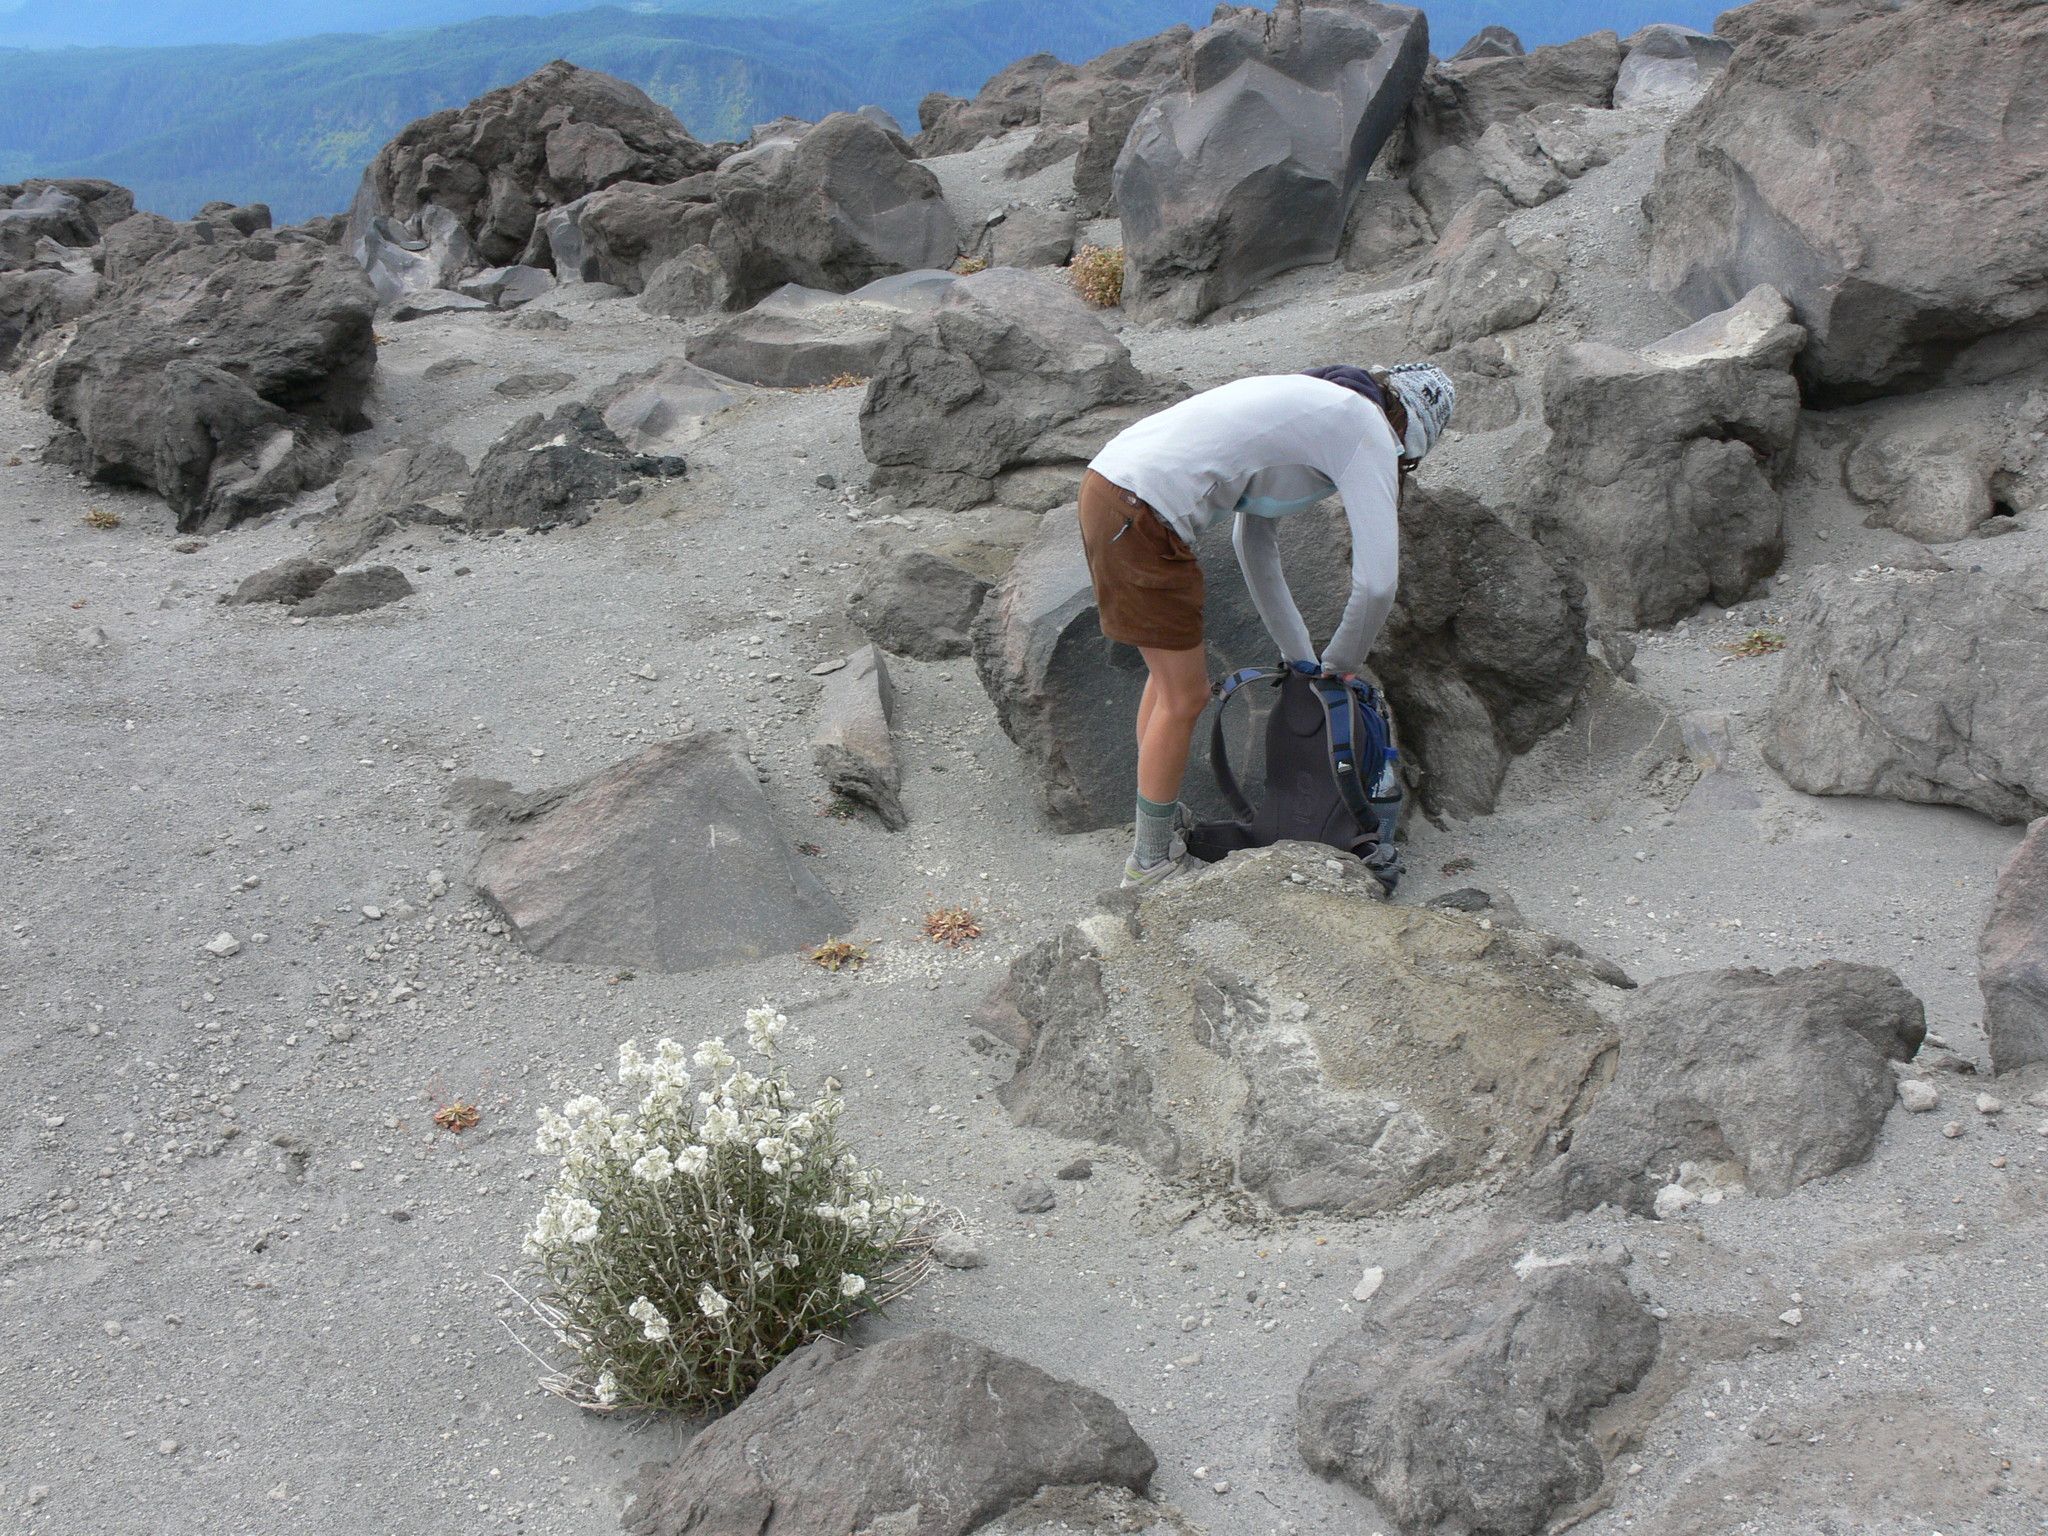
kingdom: Plantae
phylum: Tracheophyta
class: Magnoliopsida
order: Asterales
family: Asteraceae
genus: Anaphalis
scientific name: Anaphalis margaritacea
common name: Pearly everlasting
